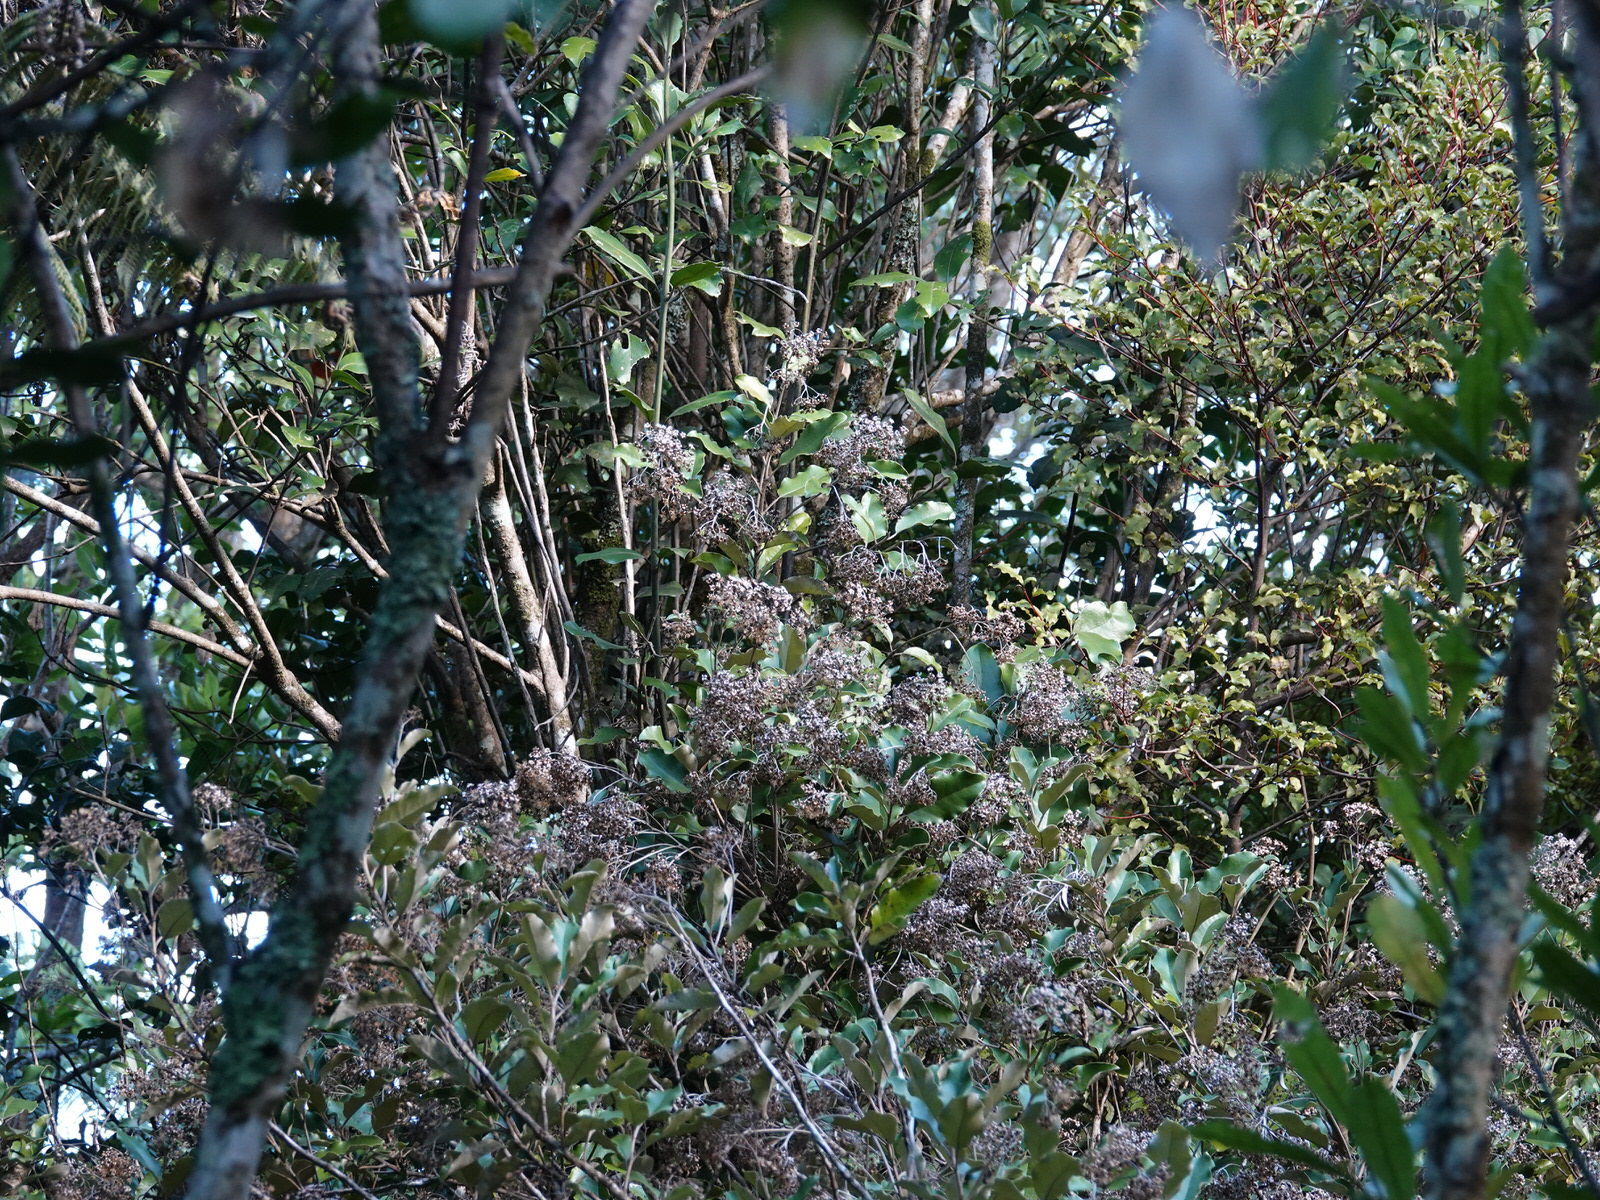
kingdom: Plantae
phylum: Tracheophyta
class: Magnoliopsida
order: Asterales
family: Asteraceae
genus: Olearia
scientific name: Olearia furfuracea
